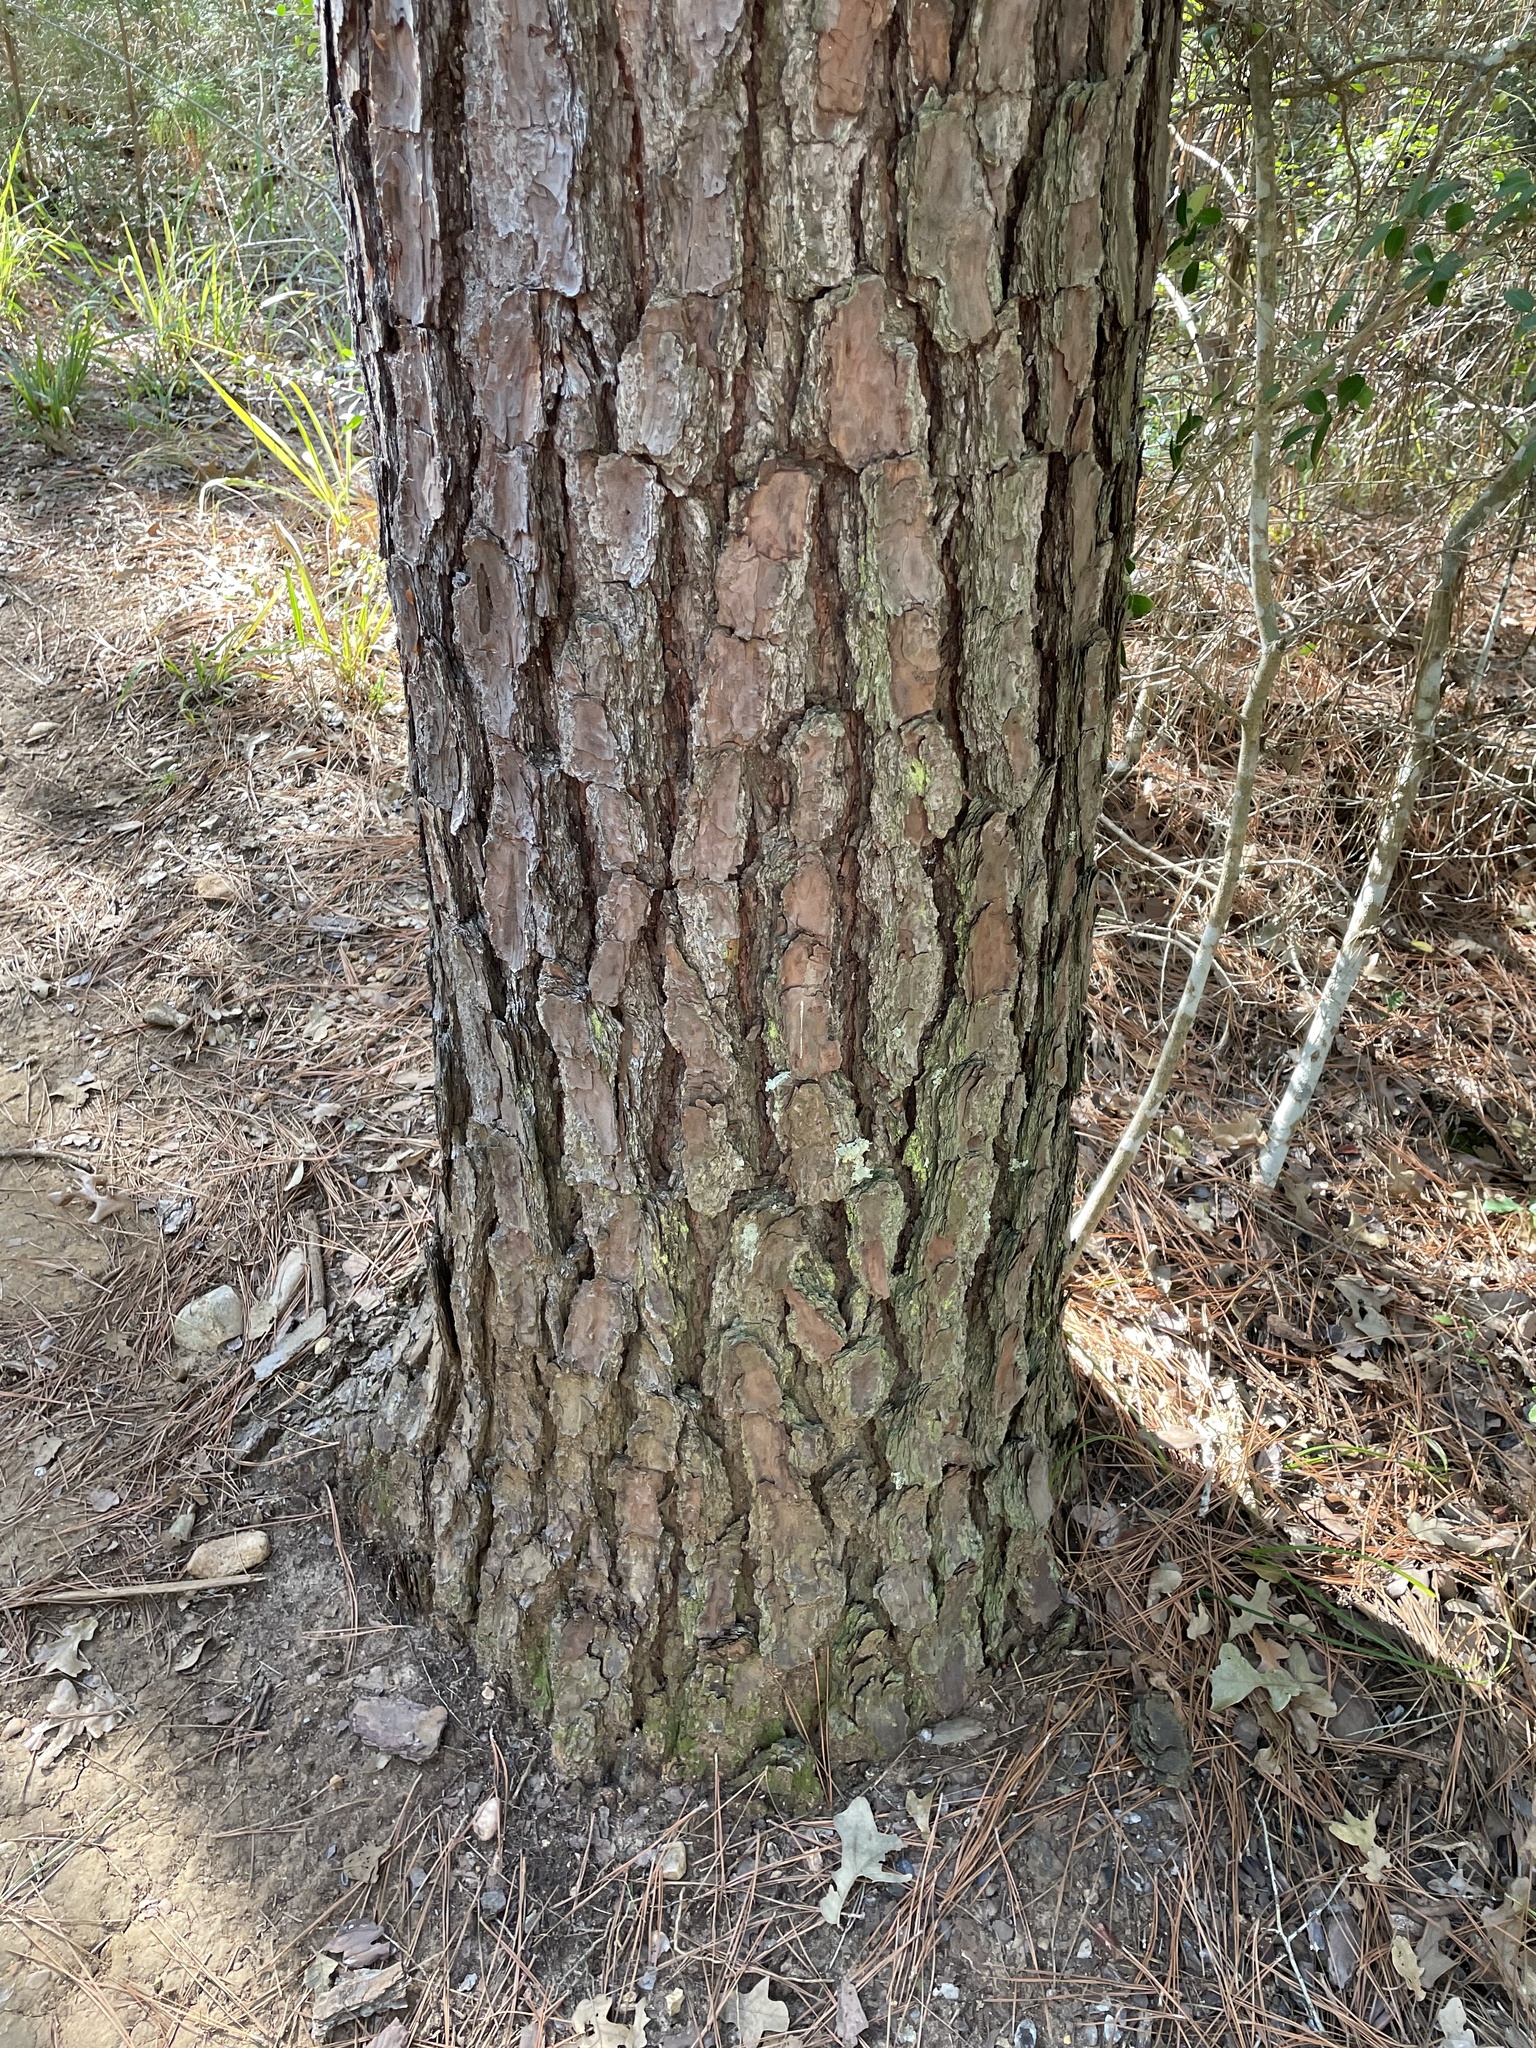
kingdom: Plantae
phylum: Tracheophyta
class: Pinopsida
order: Pinales
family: Pinaceae
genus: Pinus
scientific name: Pinus taeda
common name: Loblolly pine
